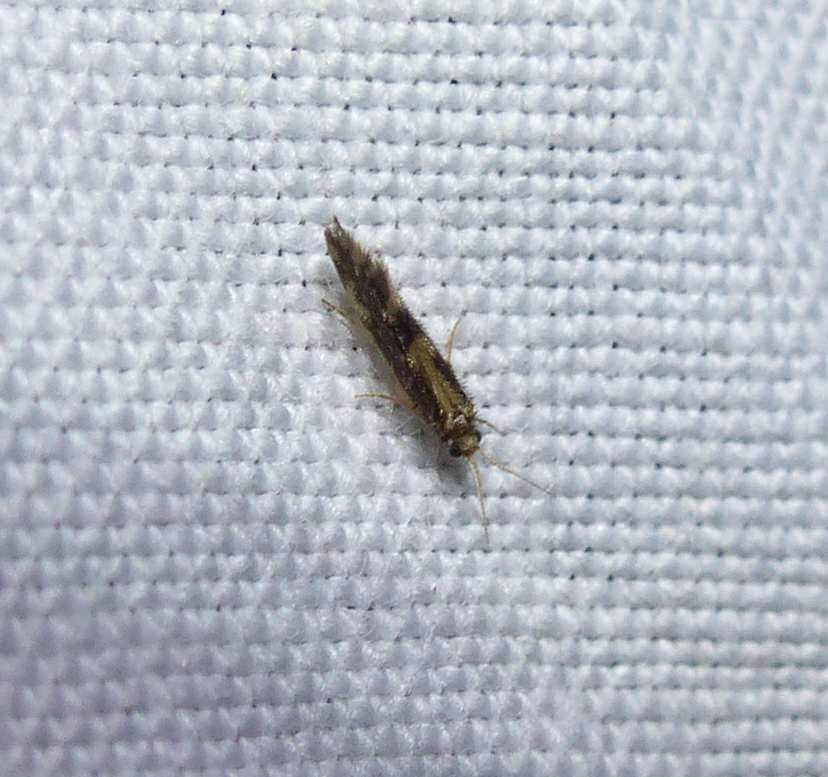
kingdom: Animalia
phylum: Arthropoda
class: Insecta
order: Trichoptera
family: Hydroptilidae
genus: Agraylea
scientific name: Agraylea multipunctata
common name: Salt and pepper microcaddisfly
